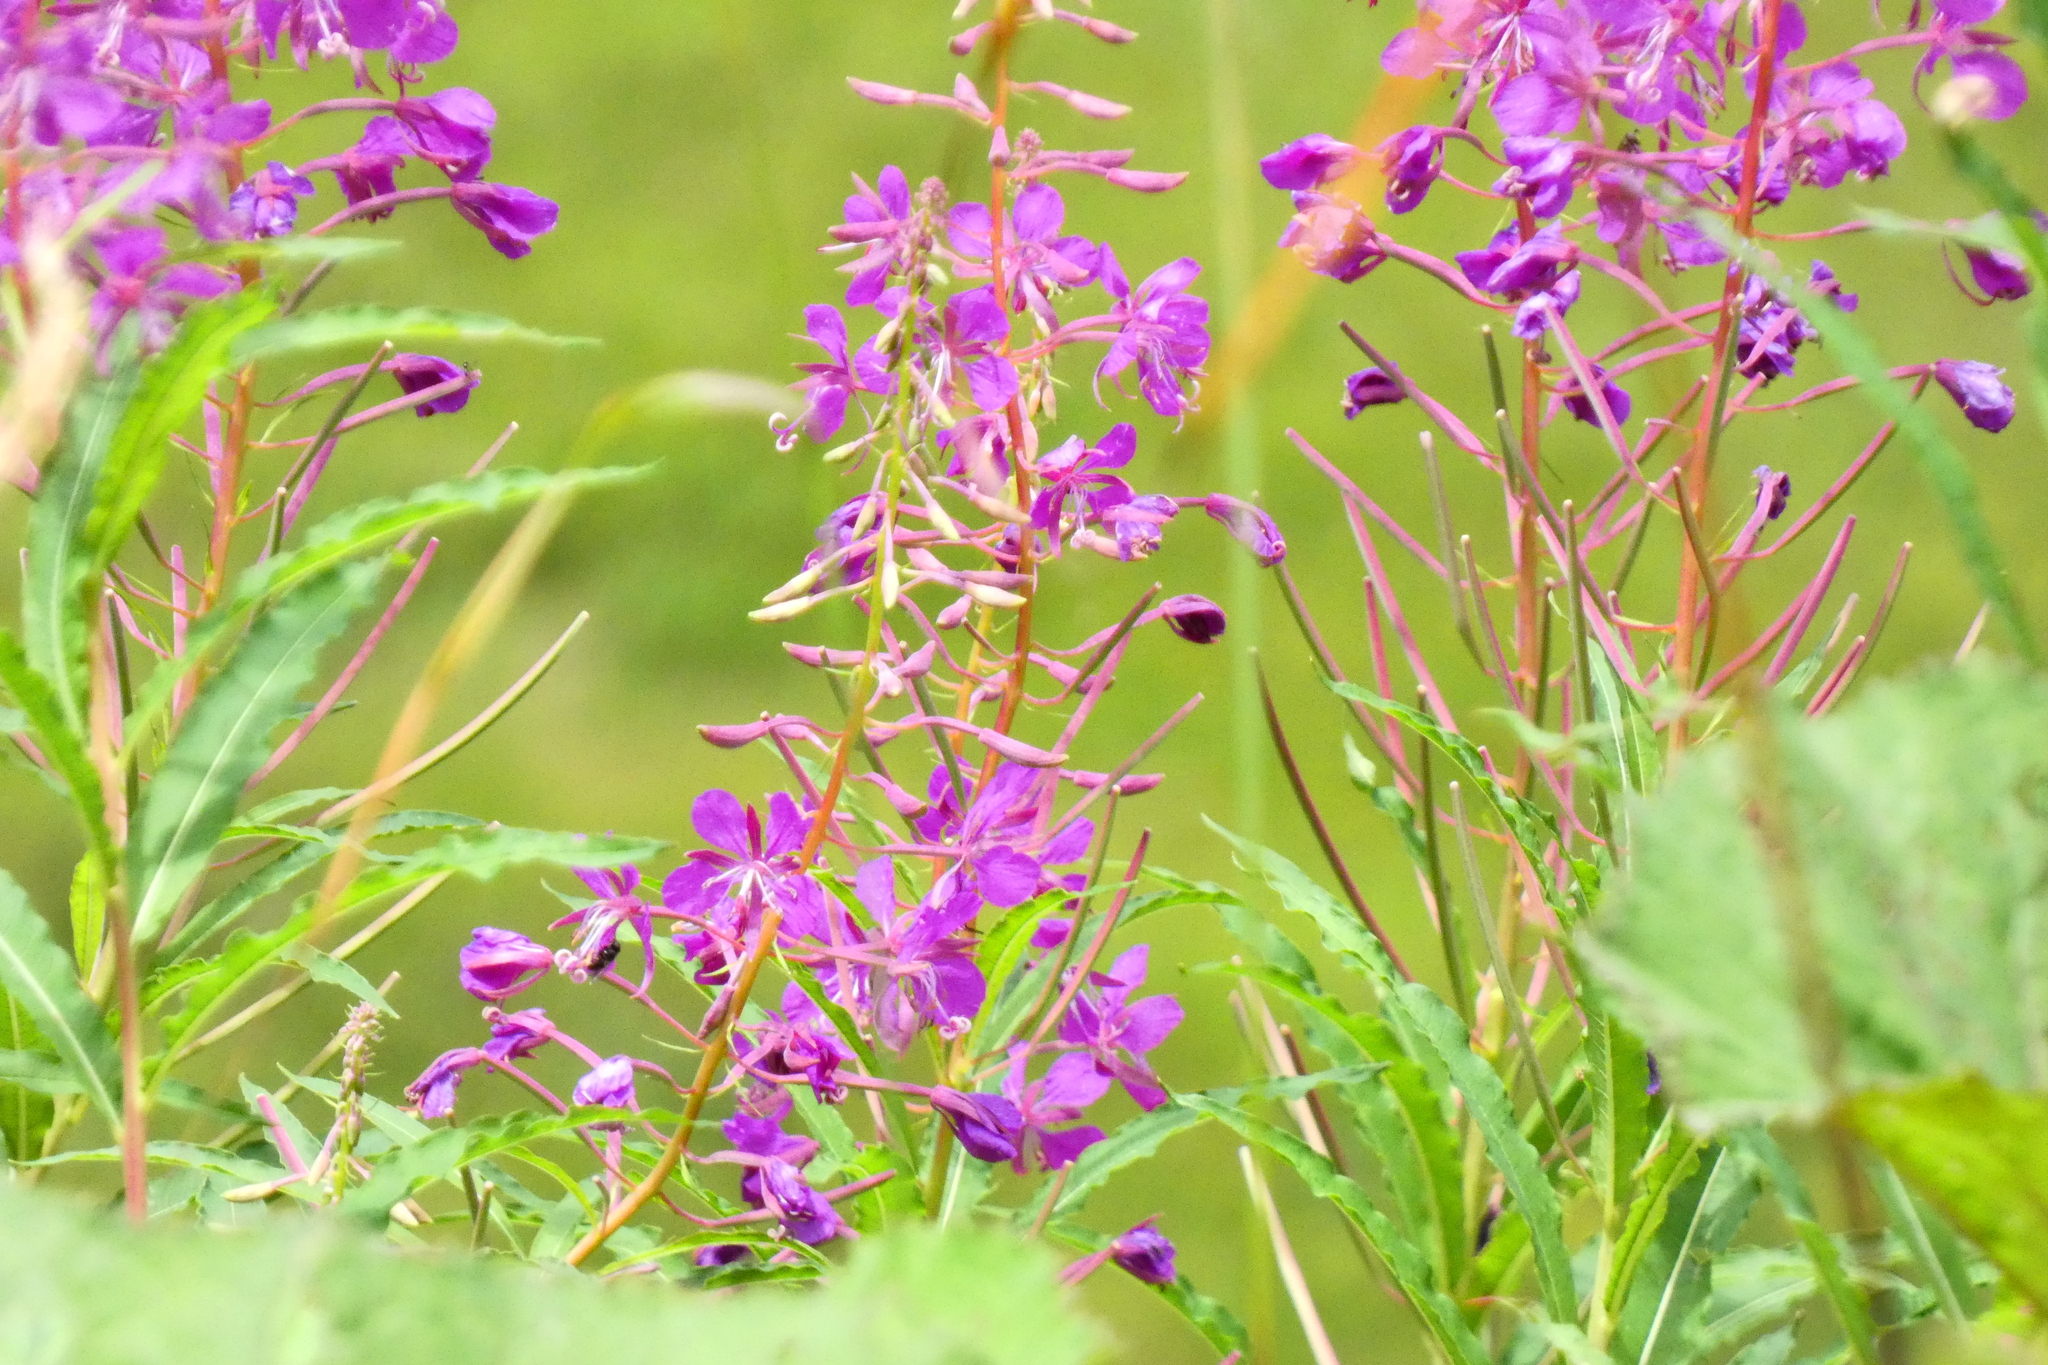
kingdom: Plantae
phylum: Tracheophyta
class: Magnoliopsida
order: Myrtales
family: Onagraceae
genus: Chamaenerion
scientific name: Chamaenerion angustifolium
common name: Fireweed
